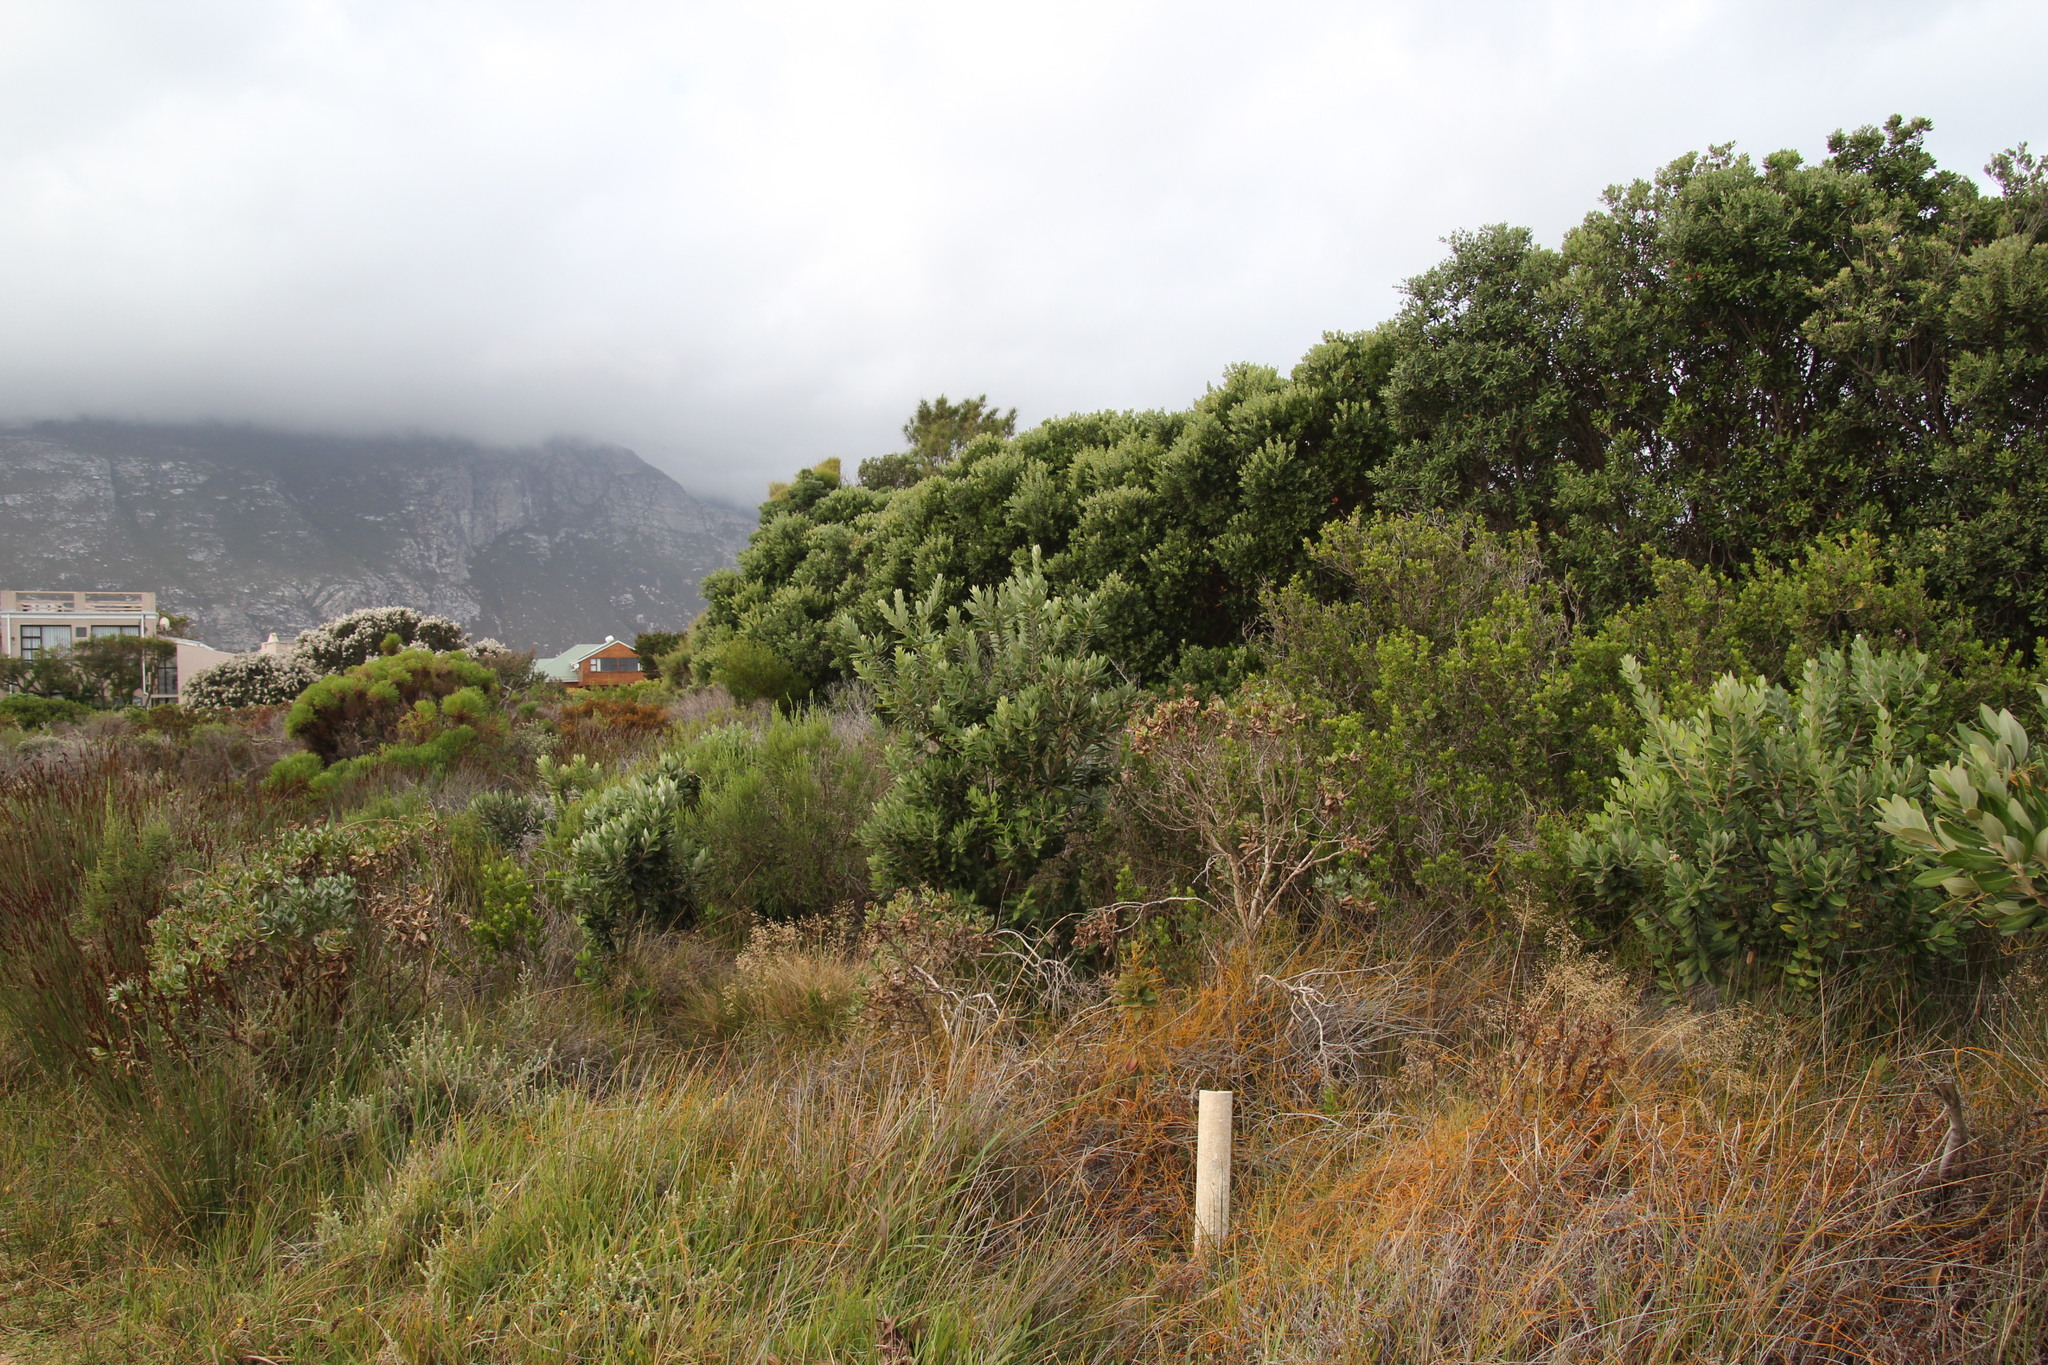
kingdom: Plantae
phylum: Tracheophyta
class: Magnoliopsida
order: Myrtales
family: Myrtaceae
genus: Metrosideros
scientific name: Metrosideros excelsa
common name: New zealand christmastree
